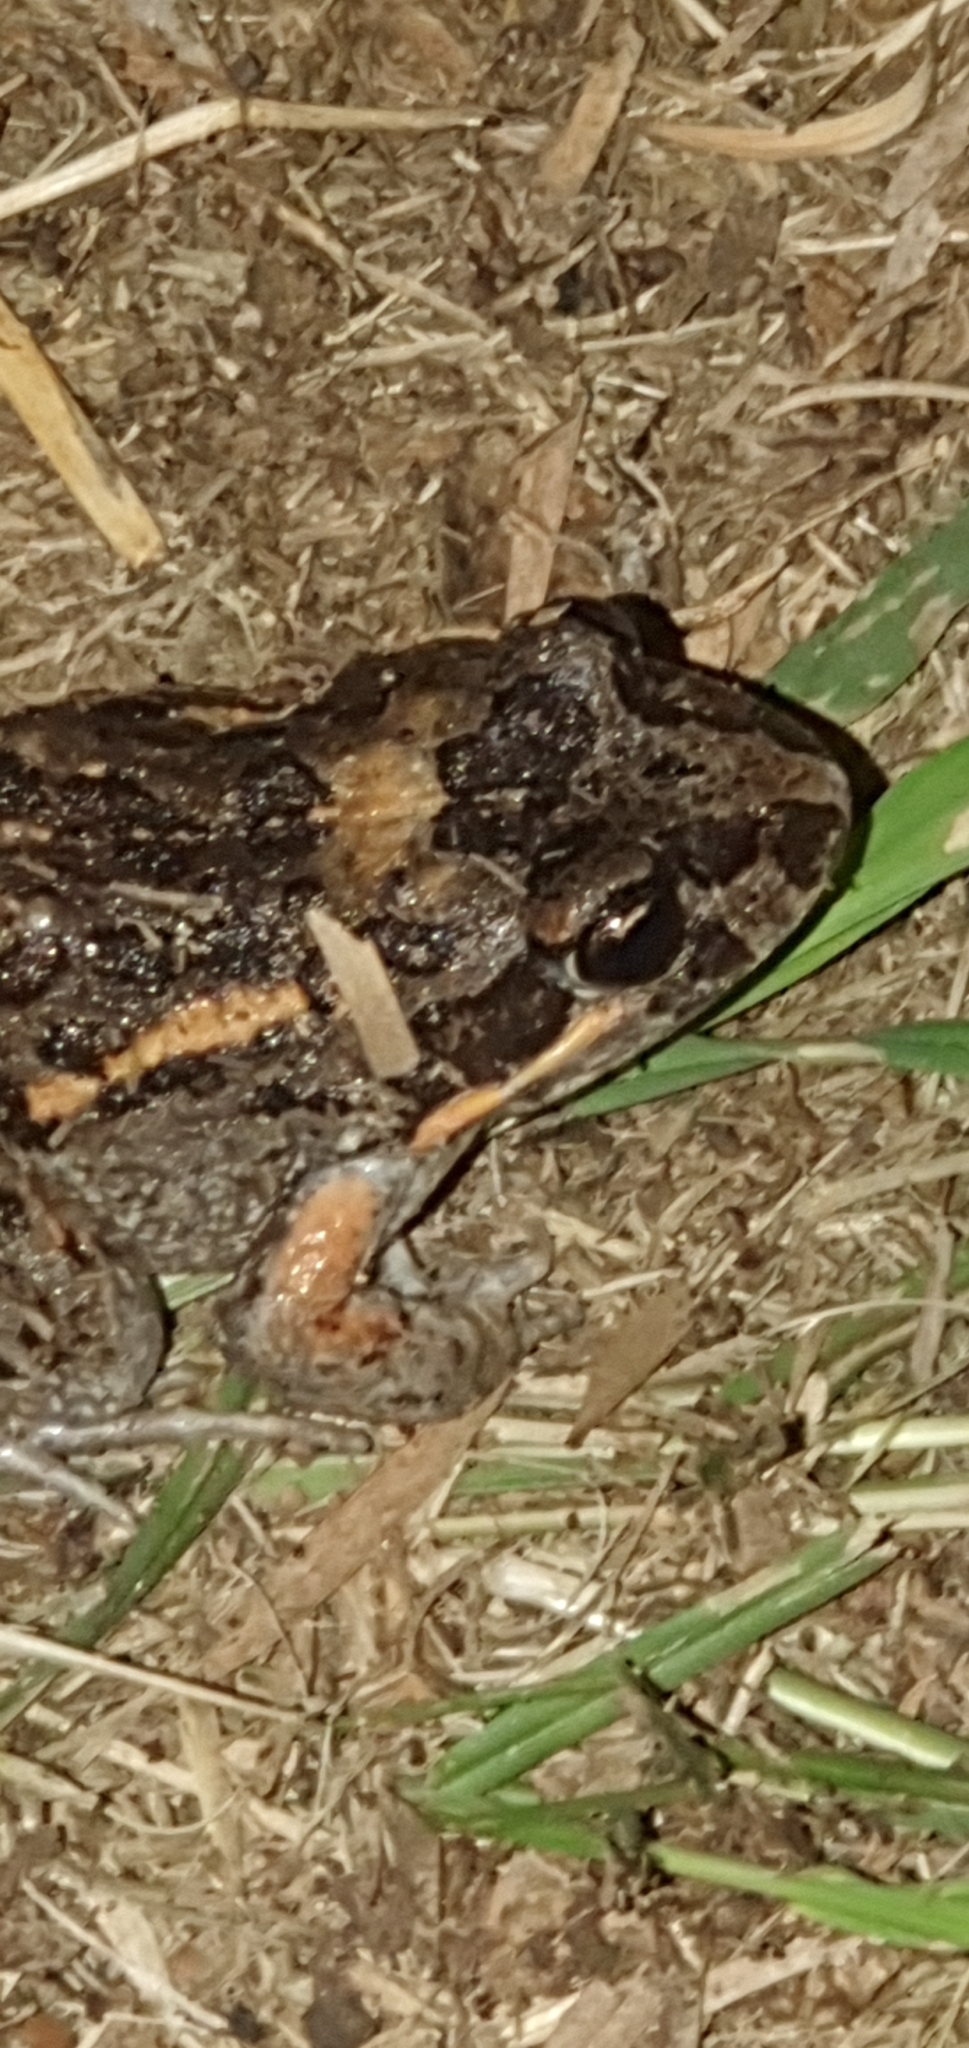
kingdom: Animalia
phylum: Chordata
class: Amphibia
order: Anura
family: Limnodynastidae
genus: Limnodynastes
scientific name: Limnodynastes salmini
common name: Salmon-striped frog
